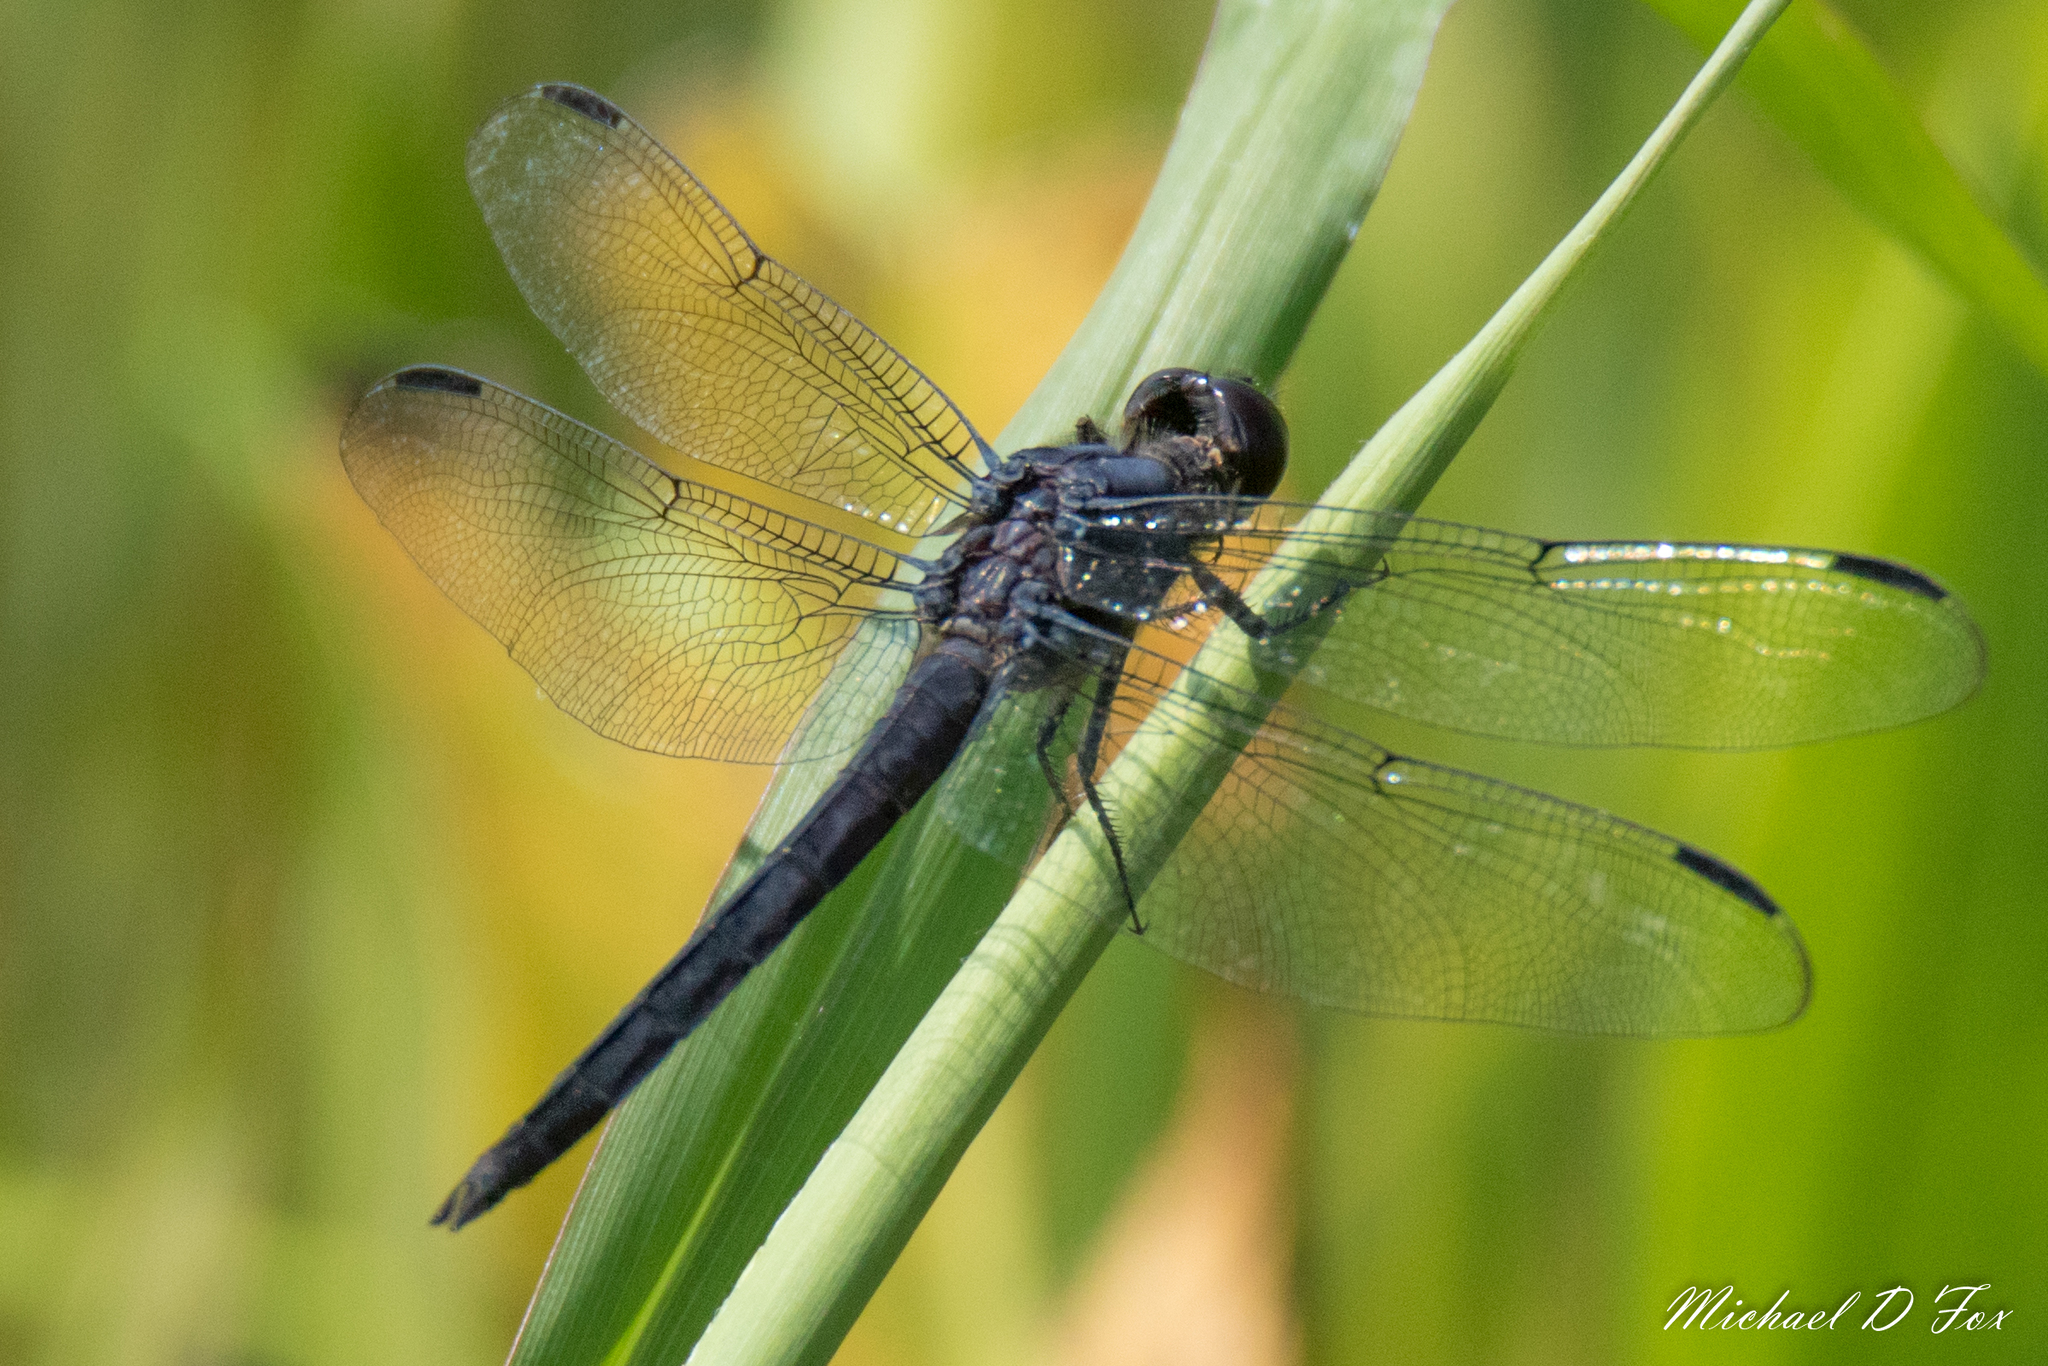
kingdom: Animalia
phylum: Arthropoda
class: Insecta
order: Odonata
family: Libellulidae
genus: Libellula
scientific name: Libellula incesta
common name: Slaty skimmer
